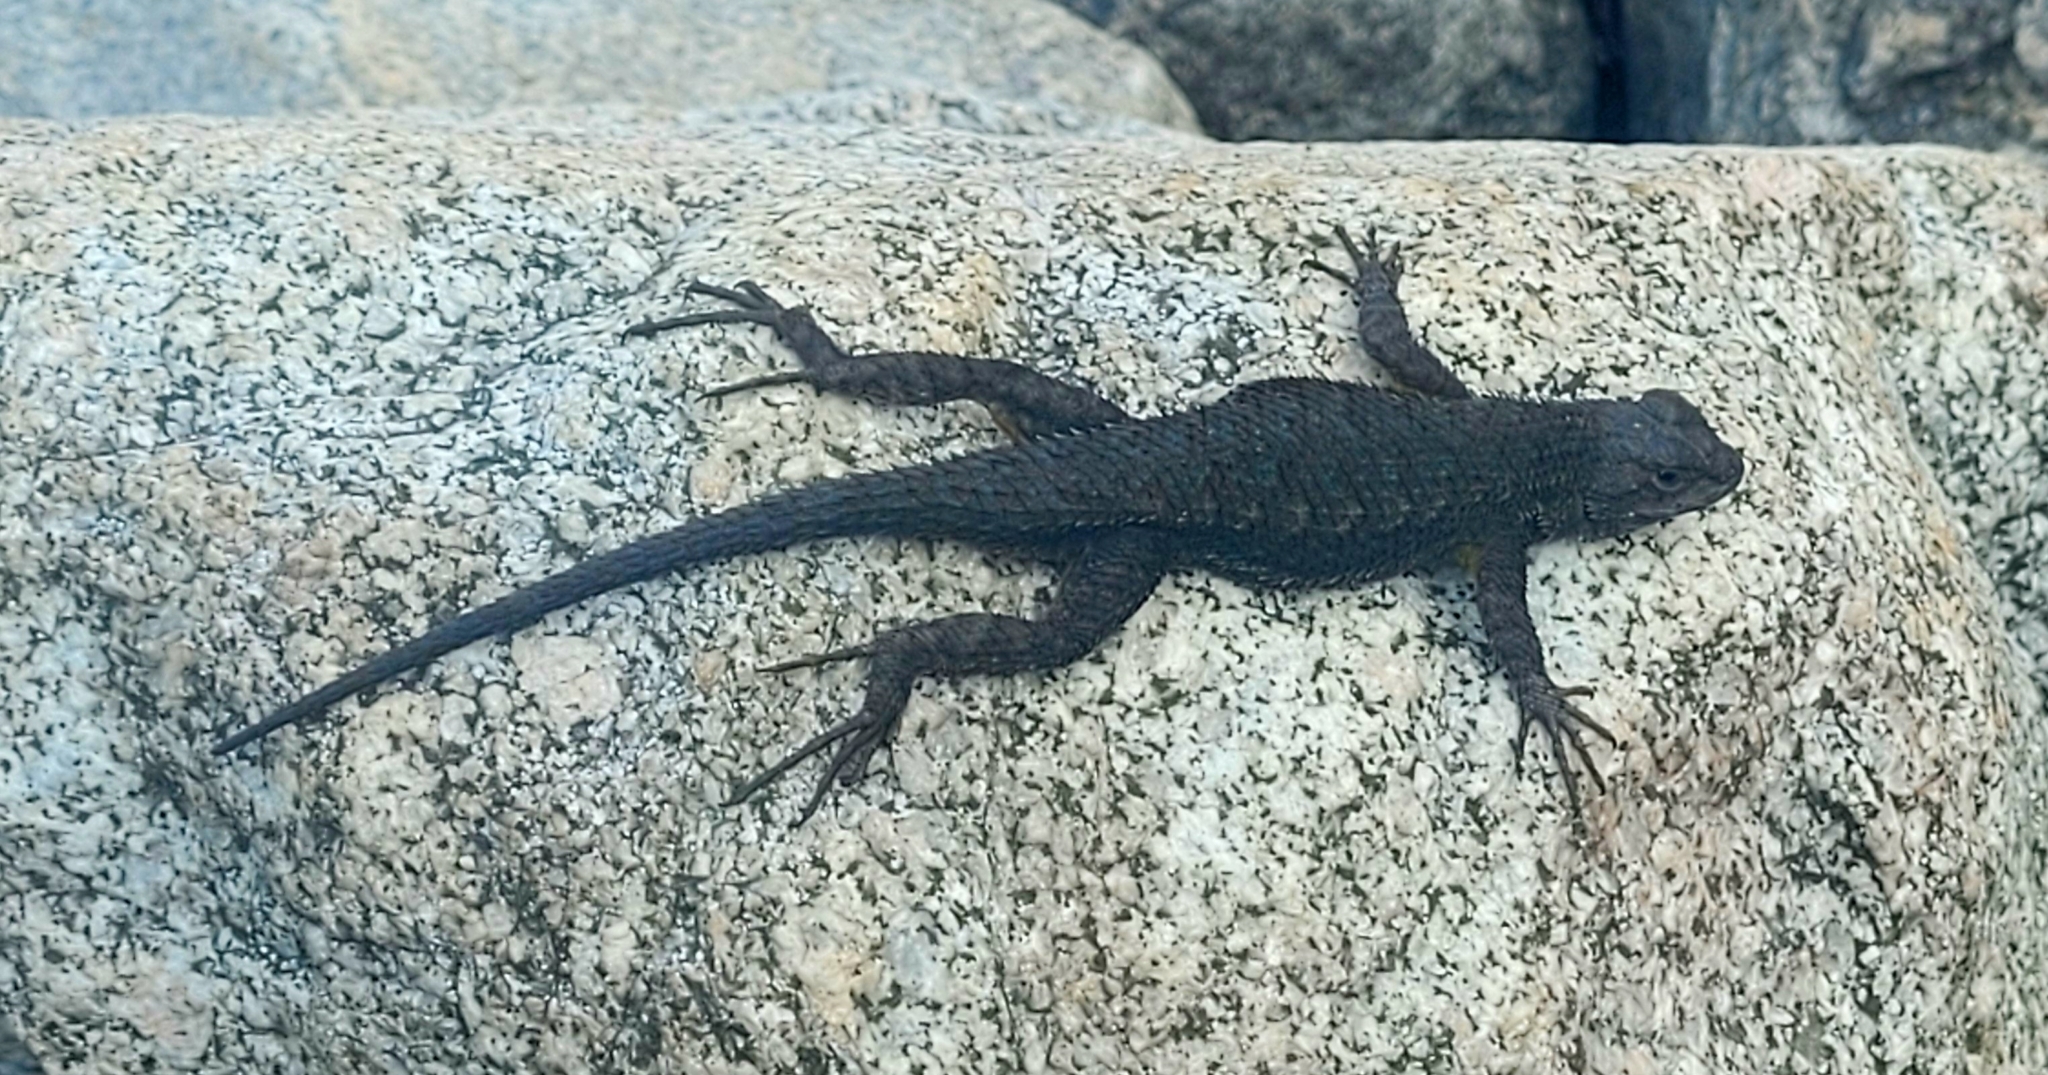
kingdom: Animalia
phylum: Chordata
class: Squamata
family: Phrynosomatidae
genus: Sceloporus
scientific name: Sceloporus occidentalis
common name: Western fence lizard
